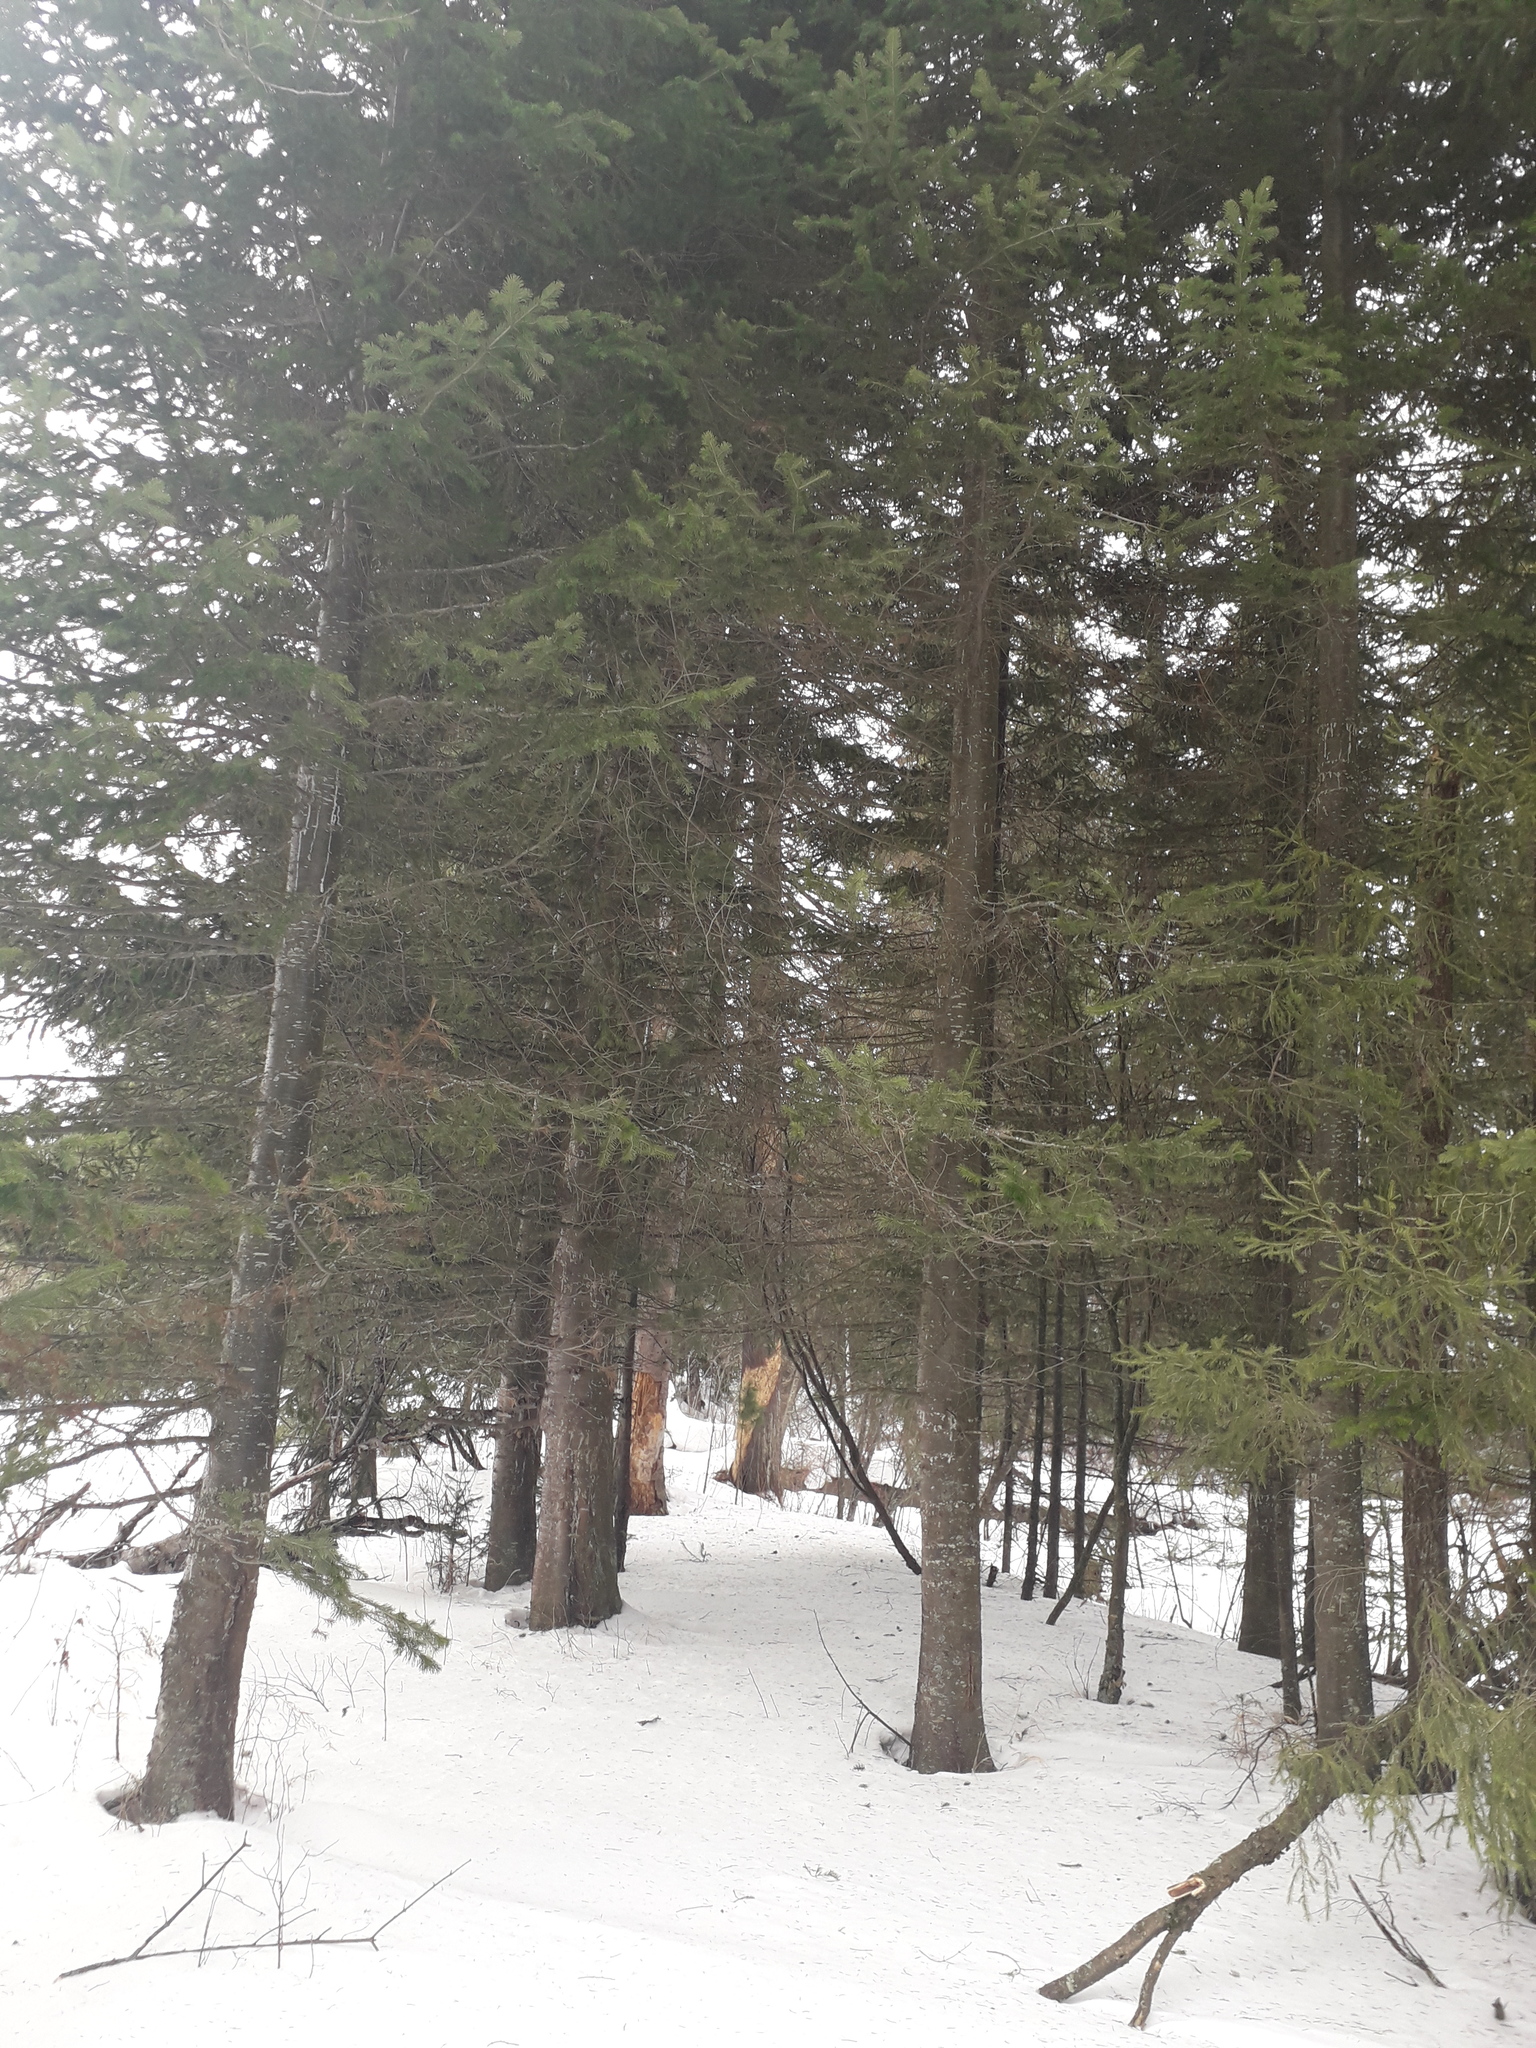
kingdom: Plantae
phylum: Tracheophyta
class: Pinopsida
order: Pinales
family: Pinaceae
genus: Abies
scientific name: Abies sibirica
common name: Siberian fir
